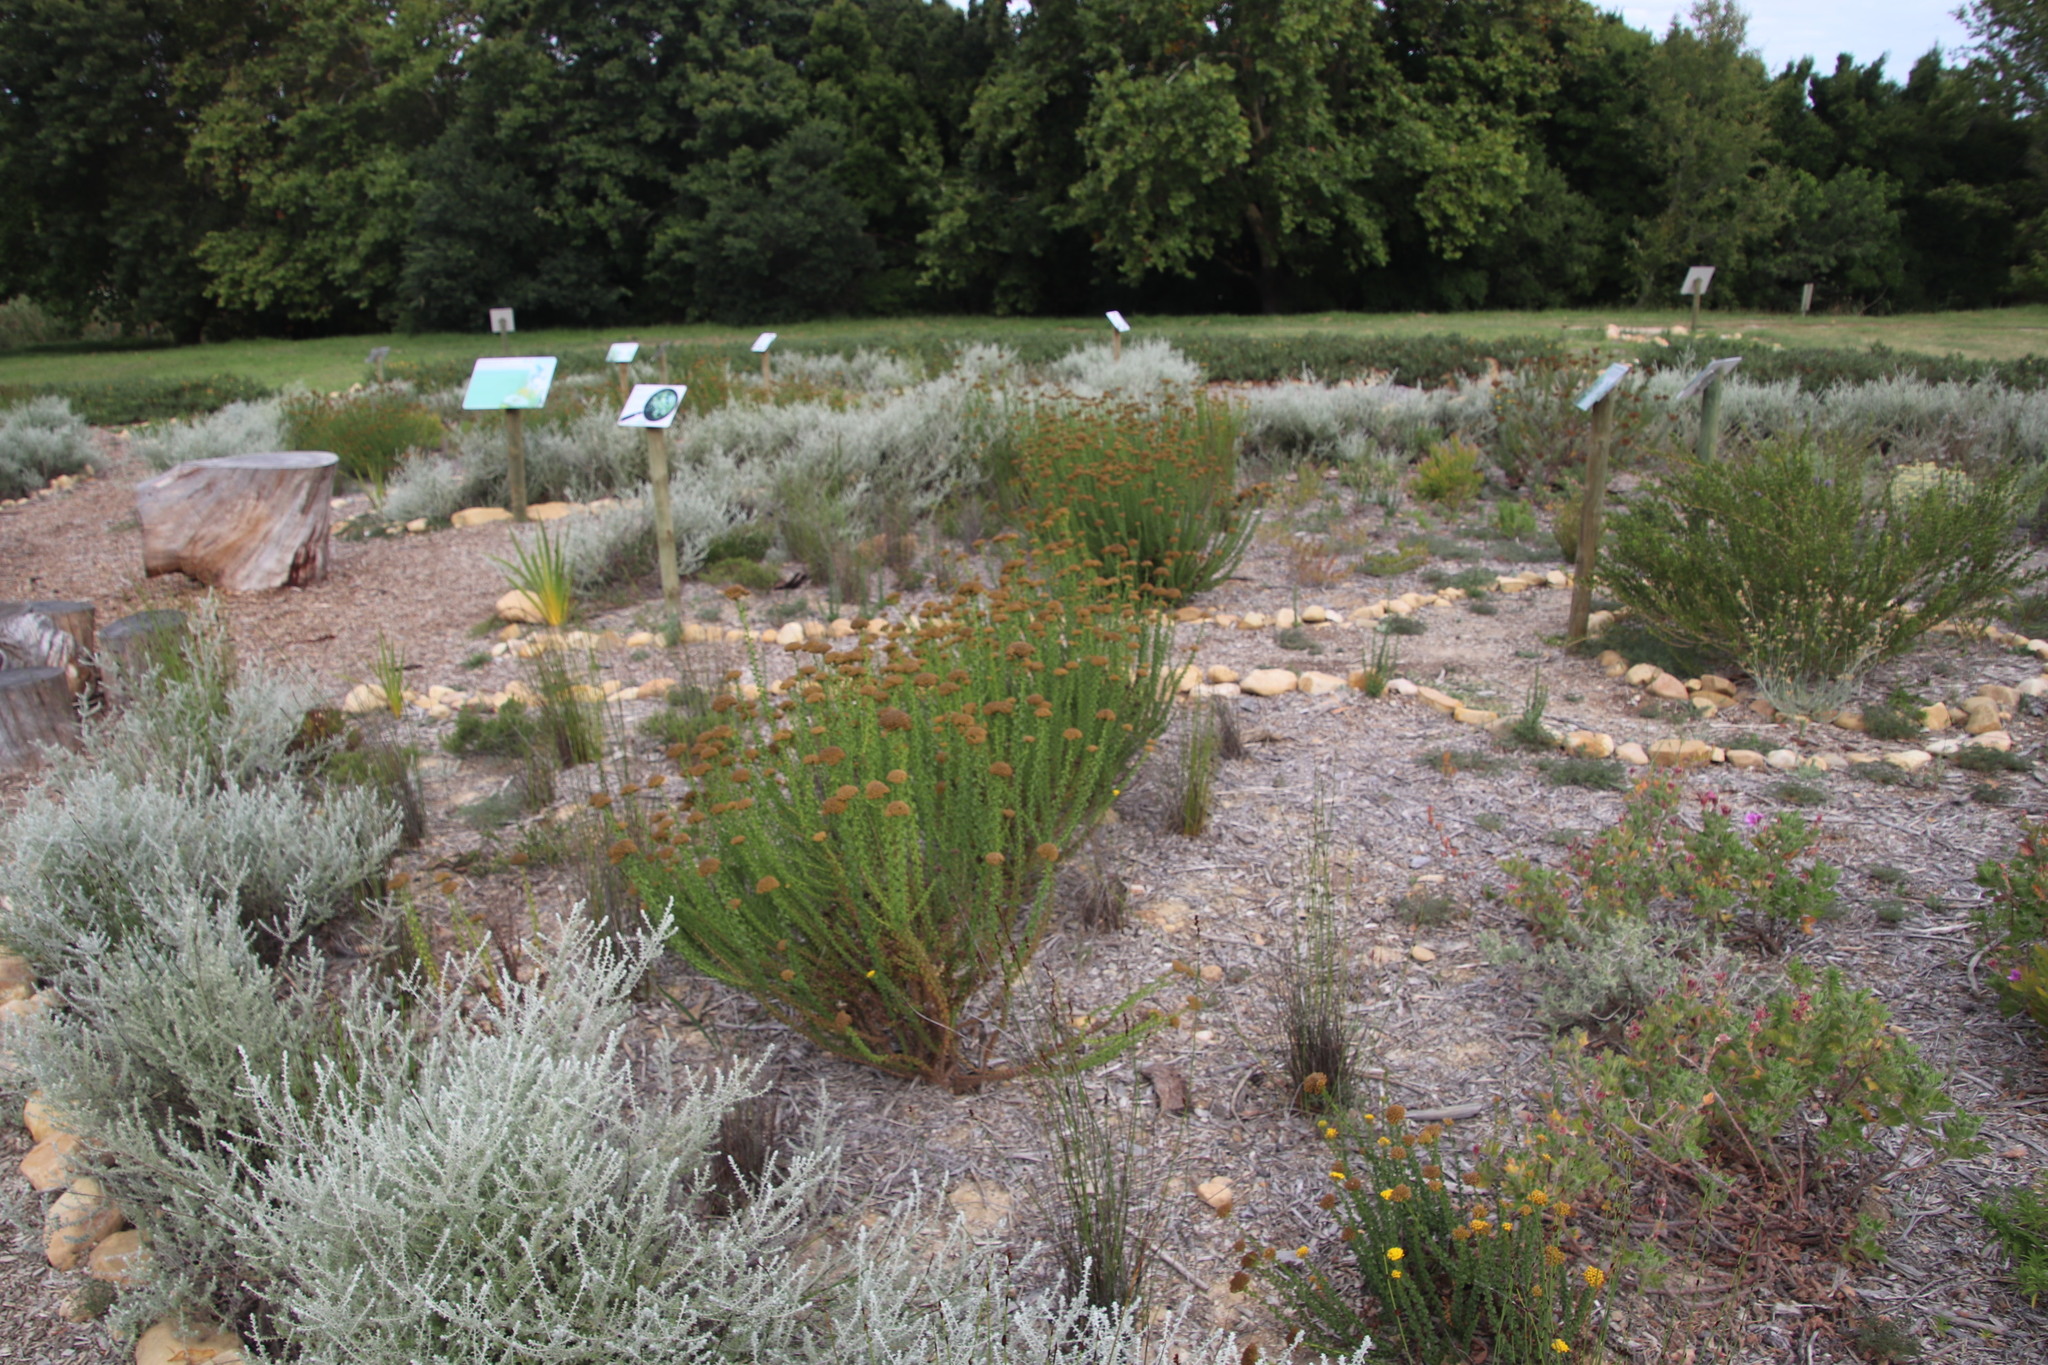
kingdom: Plantae
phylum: Tracheophyta
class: Magnoliopsida
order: Asterales
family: Asteraceae
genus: Athanasia
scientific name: Athanasia dentata
